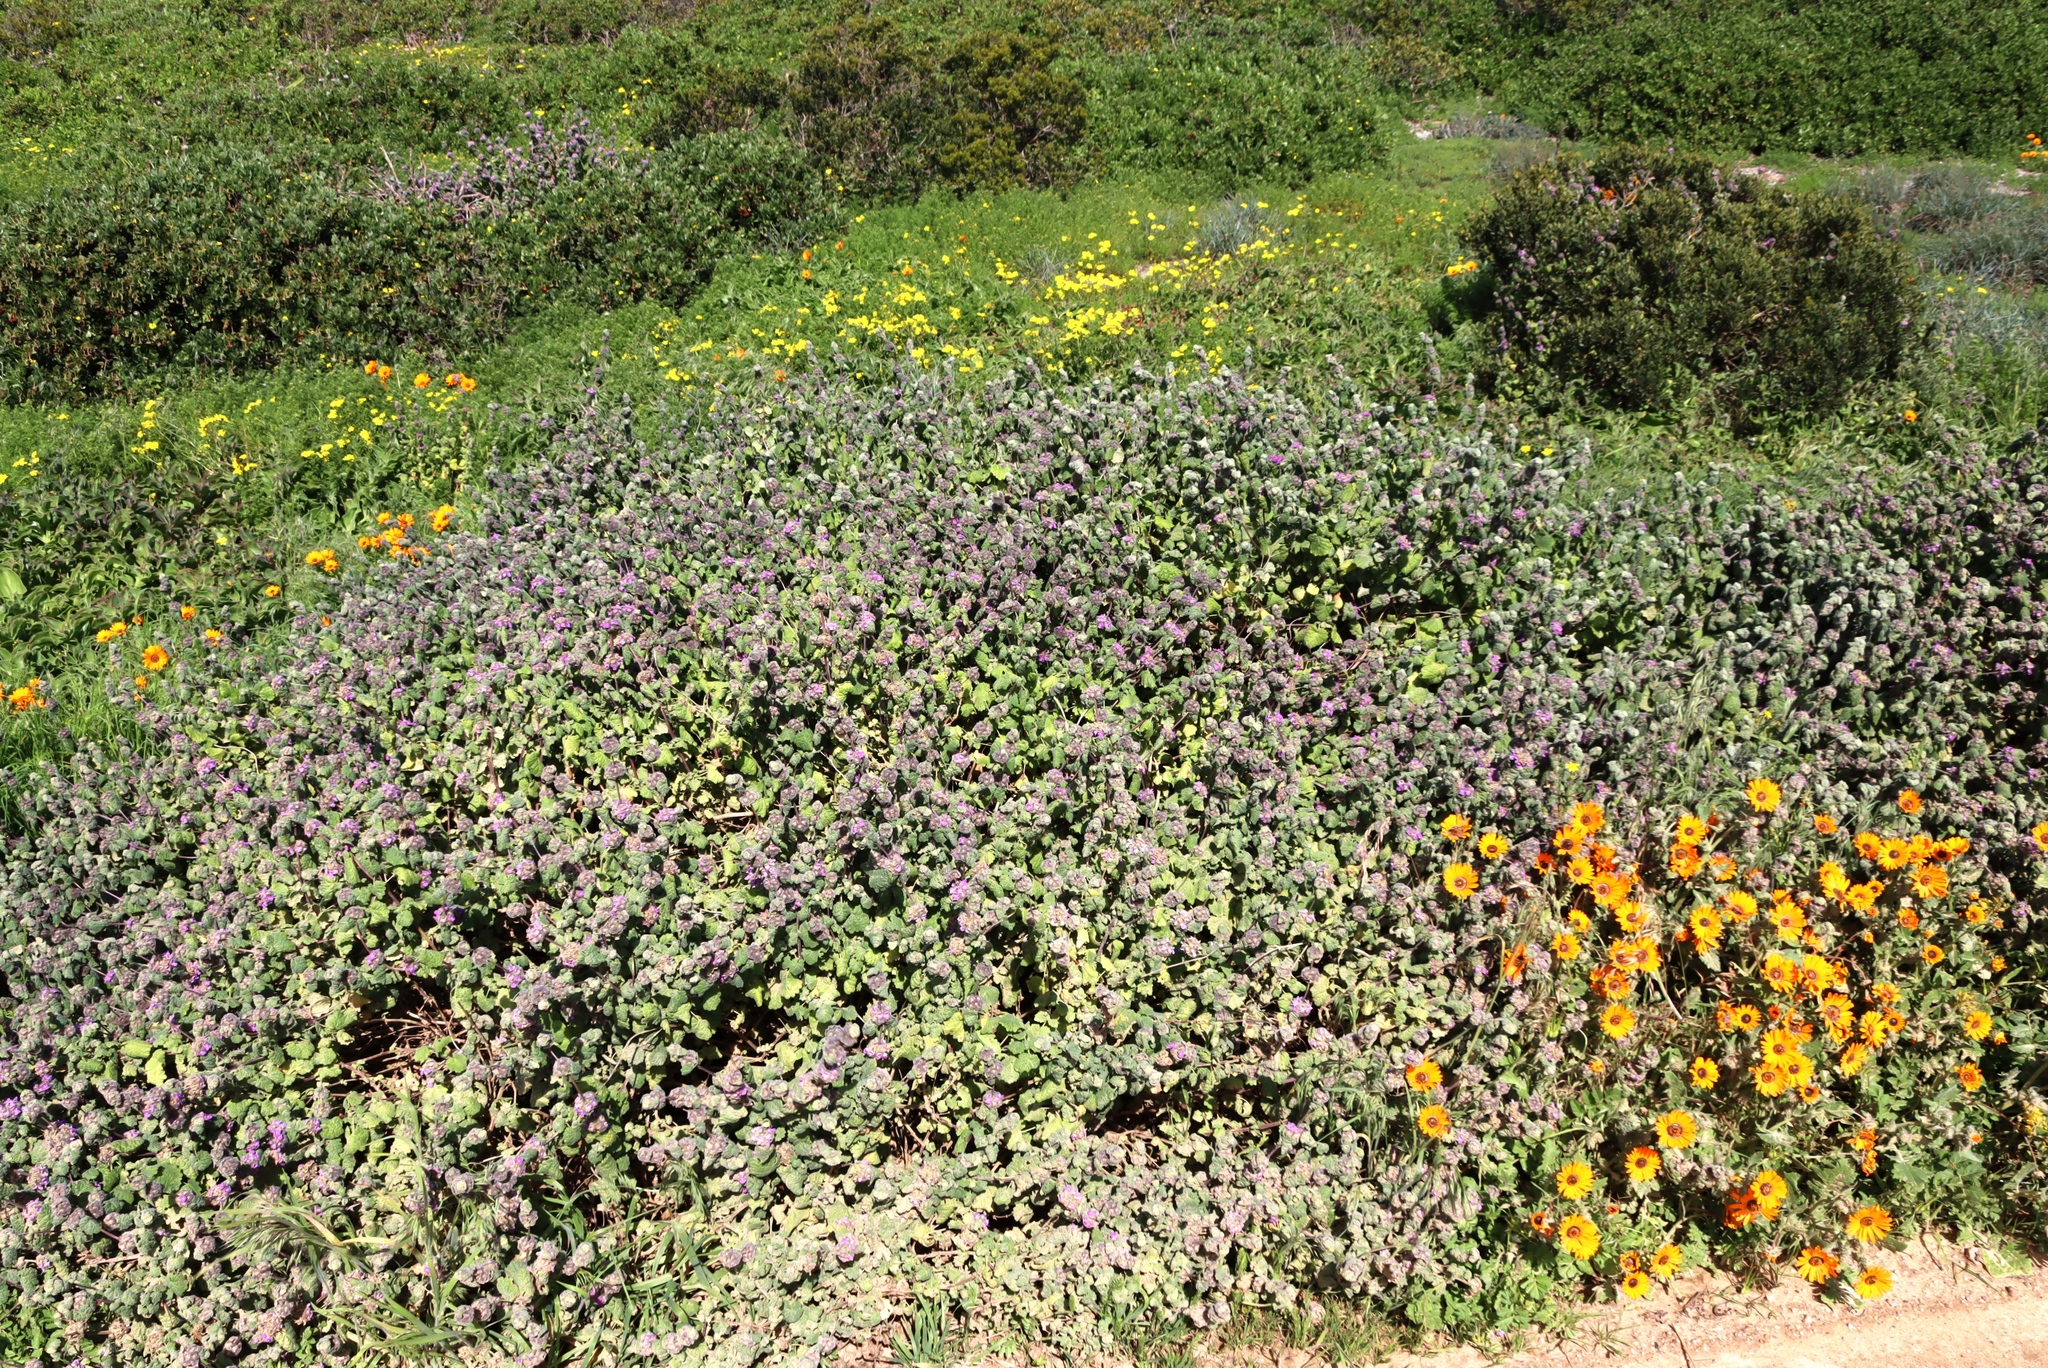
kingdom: Plantae
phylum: Tracheophyta
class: Magnoliopsida
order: Lamiales
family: Lamiaceae
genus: Pseudodictamnus
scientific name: Pseudodictamnus africanus
